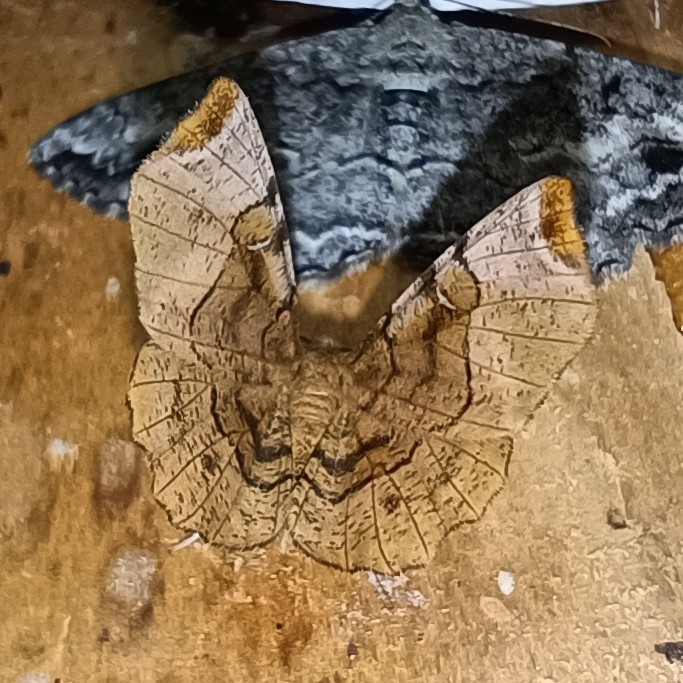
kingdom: Animalia
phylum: Arthropoda
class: Insecta
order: Lepidoptera
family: Geometridae
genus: Selenia
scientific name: Selenia tetralunaria
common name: Purple thorn
